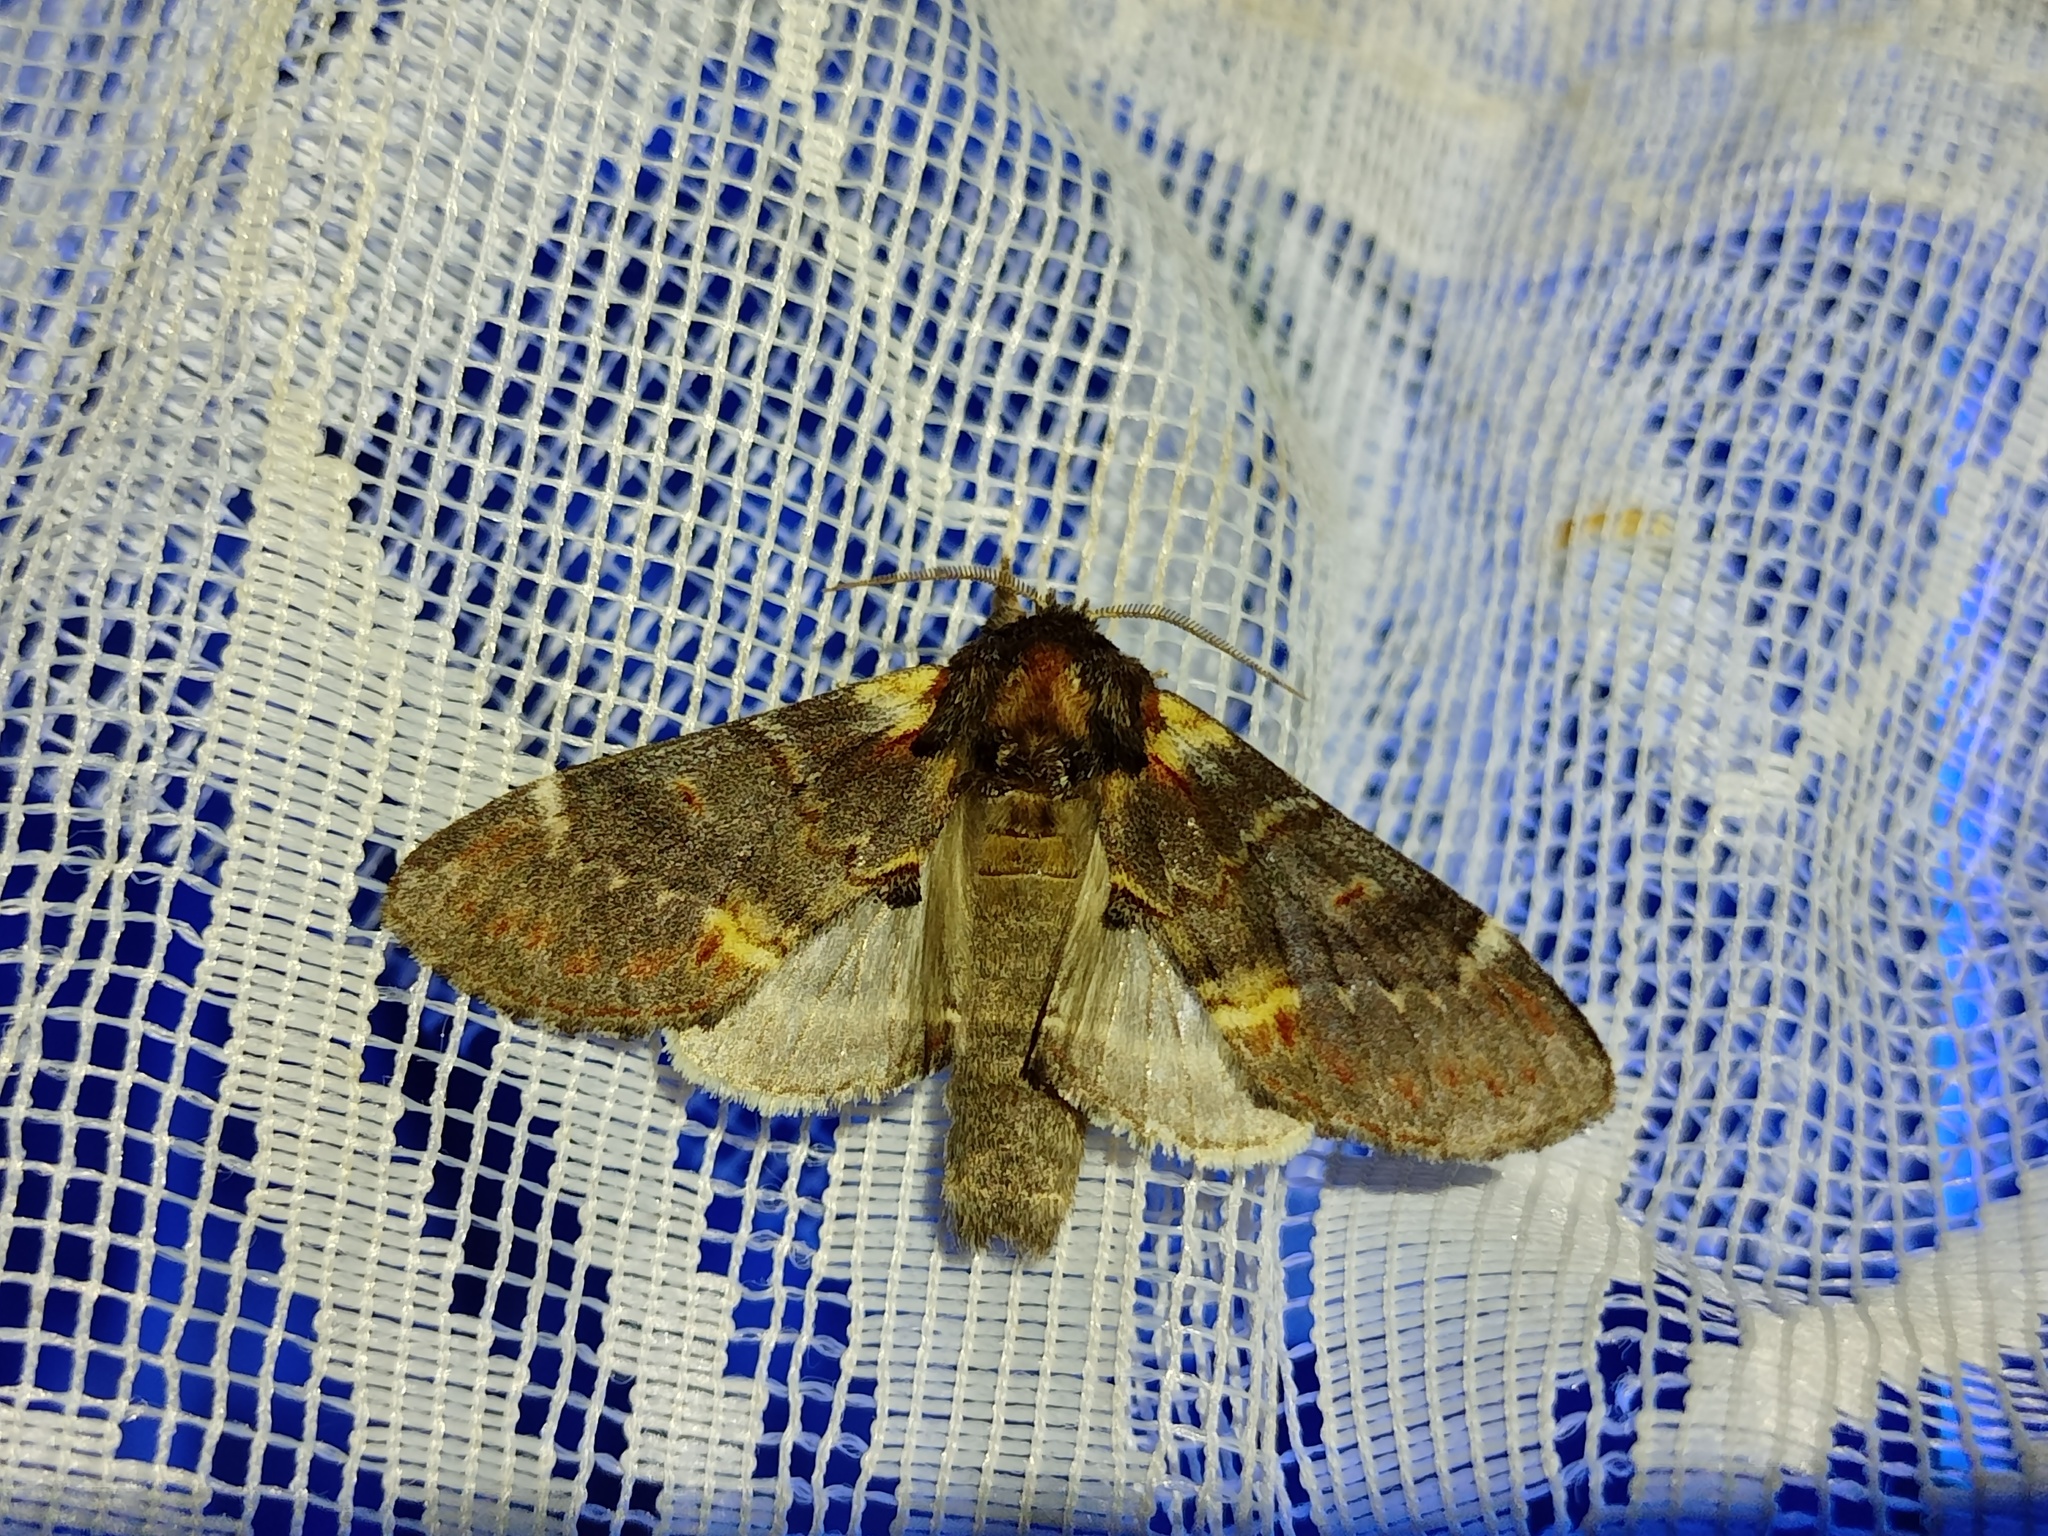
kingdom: Animalia
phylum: Arthropoda
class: Insecta
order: Lepidoptera
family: Notodontidae
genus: Notodonta
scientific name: Notodonta dromedarius
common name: Iron prominent
